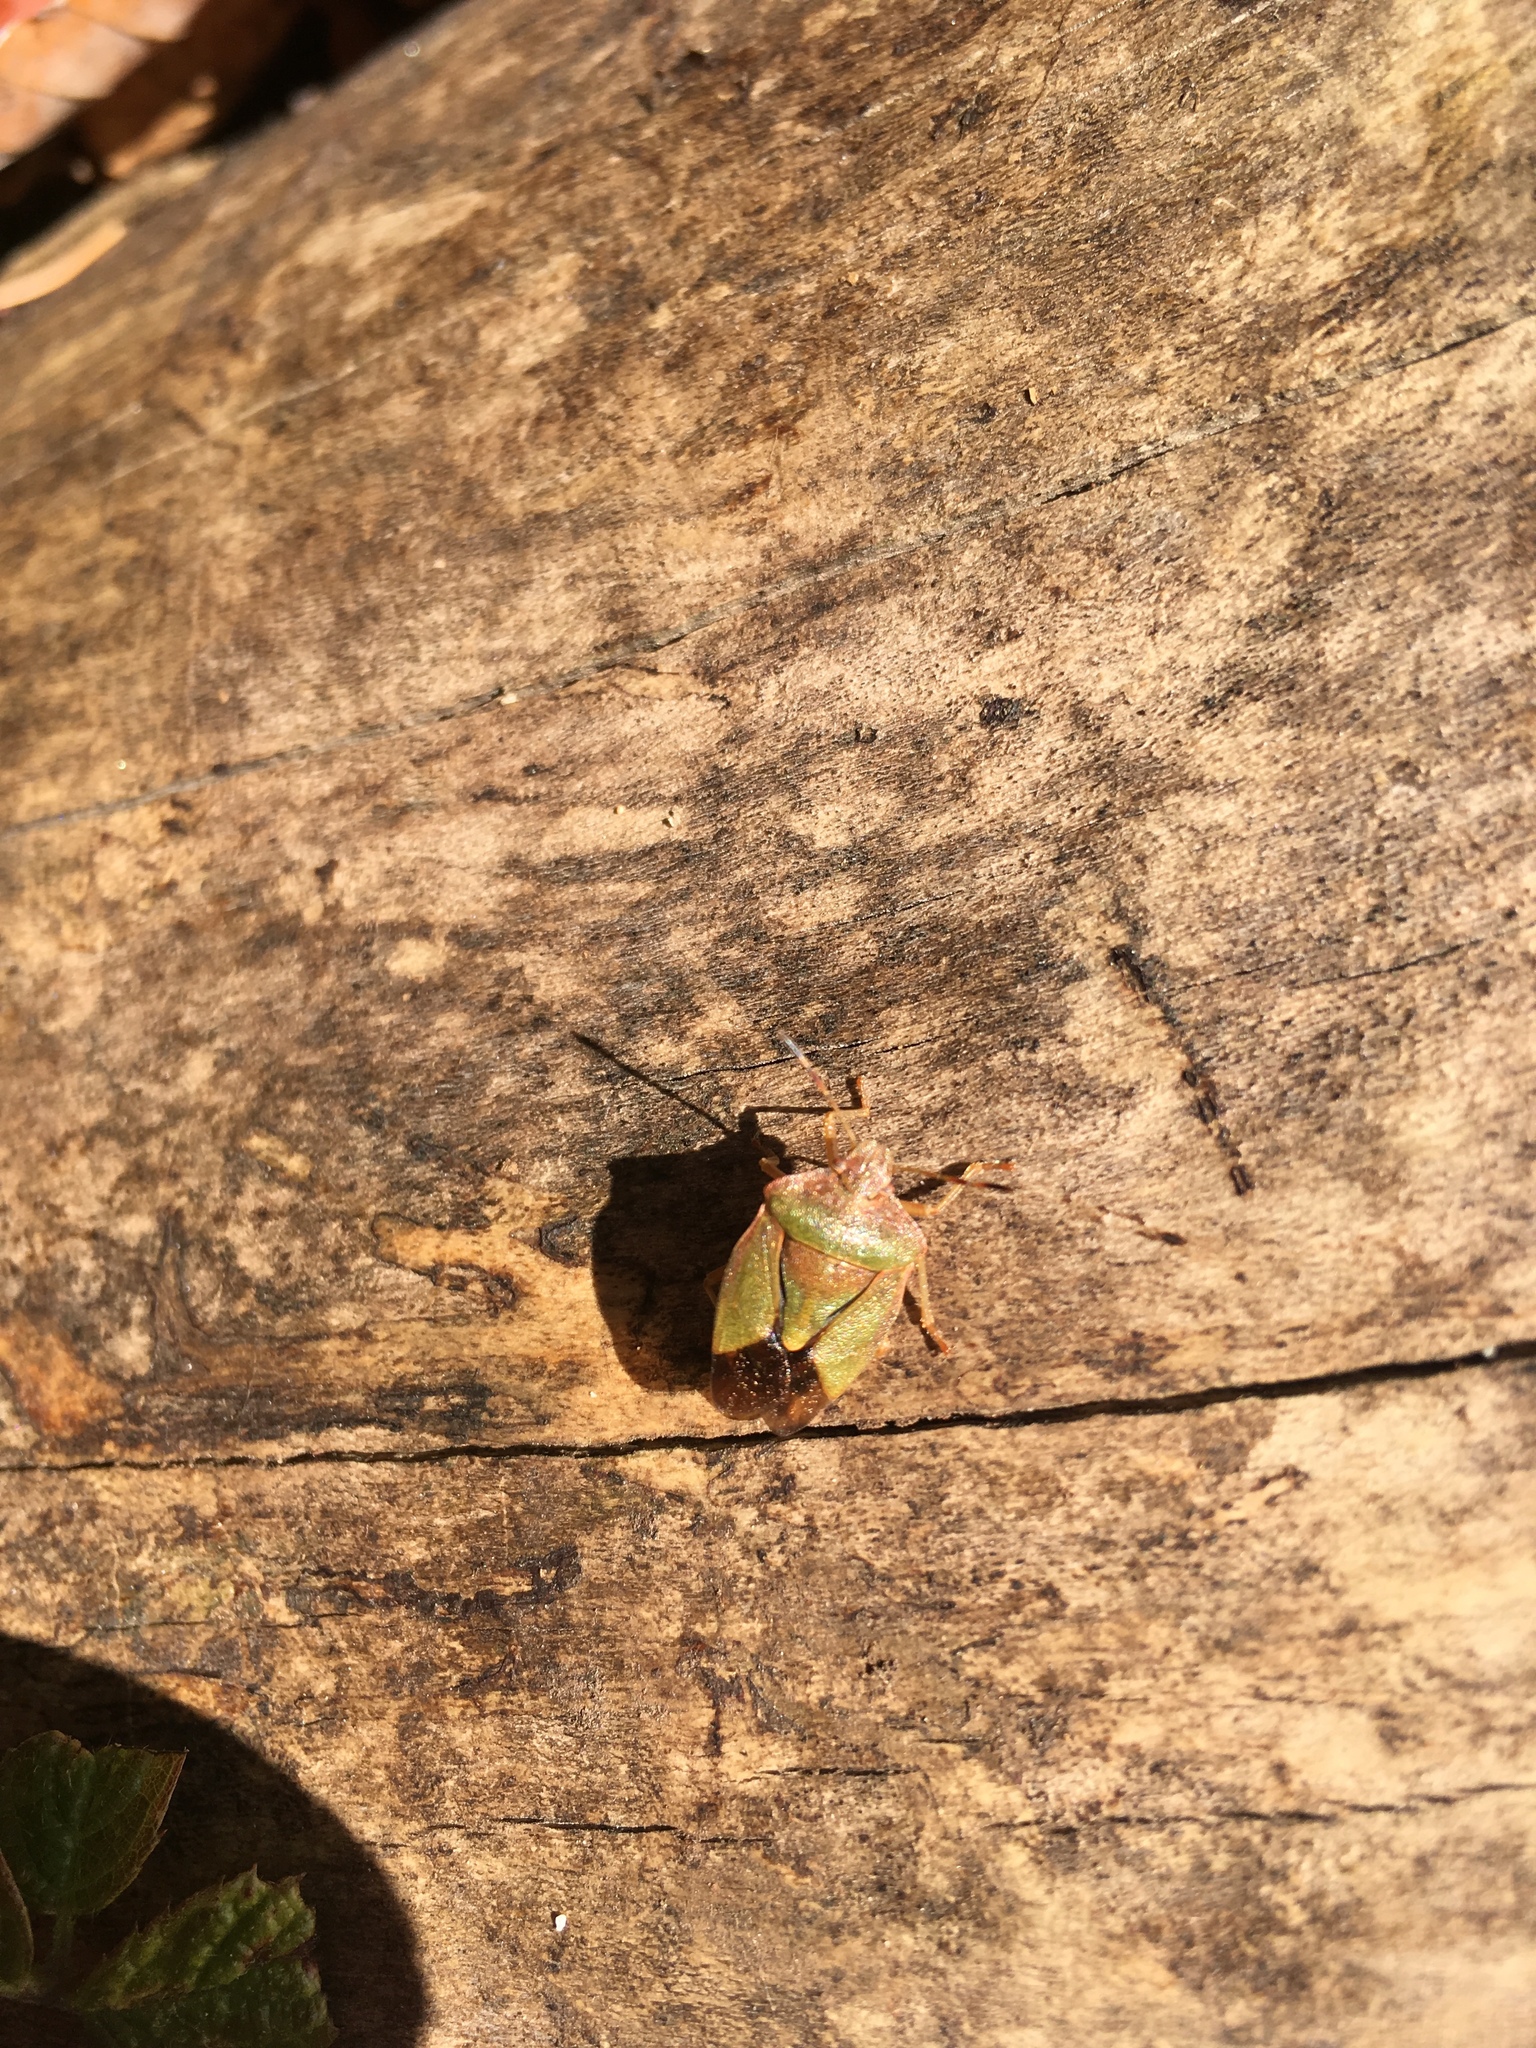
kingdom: Animalia
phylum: Arthropoda
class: Insecta
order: Hemiptera
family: Pentatomidae
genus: Palomena
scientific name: Palomena prasina
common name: Green shieldbug
